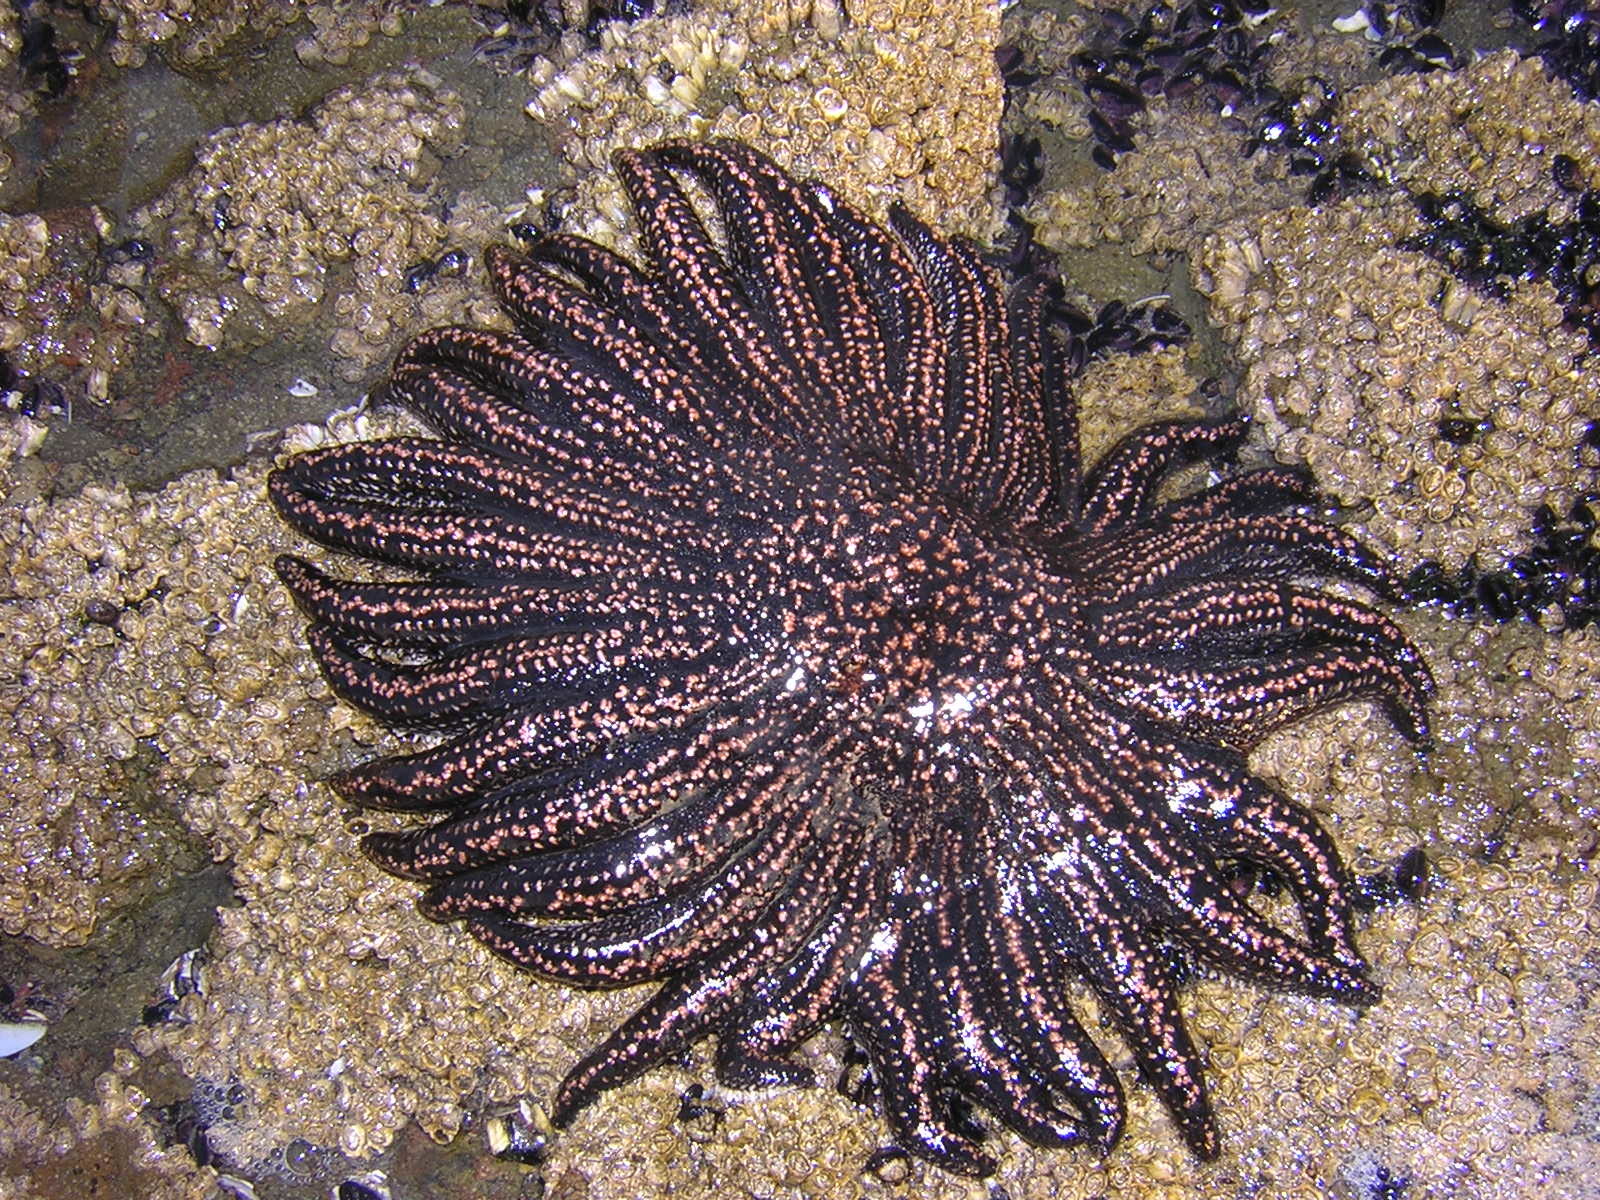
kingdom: Animalia
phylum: Echinodermata
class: Asteroidea
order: Forcipulatida
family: Heliasteridae
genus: Heliaster
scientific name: Heliaster helianthus
